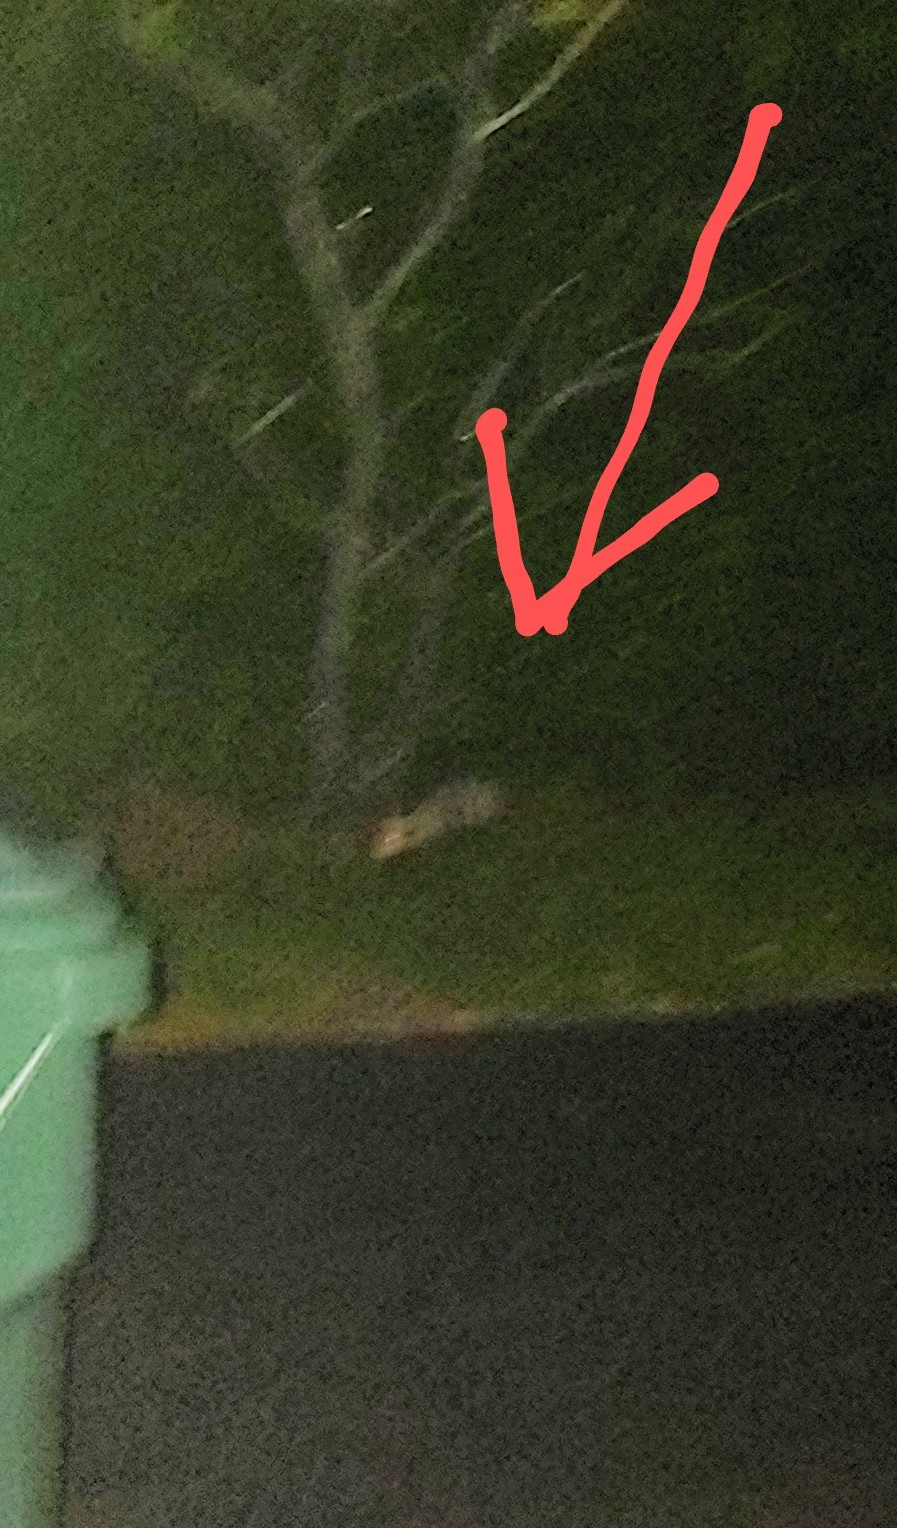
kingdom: Animalia
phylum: Chordata
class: Mammalia
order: Didelphimorphia
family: Didelphidae
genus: Didelphis
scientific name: Didelphis virginiana
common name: Virginia opossum
